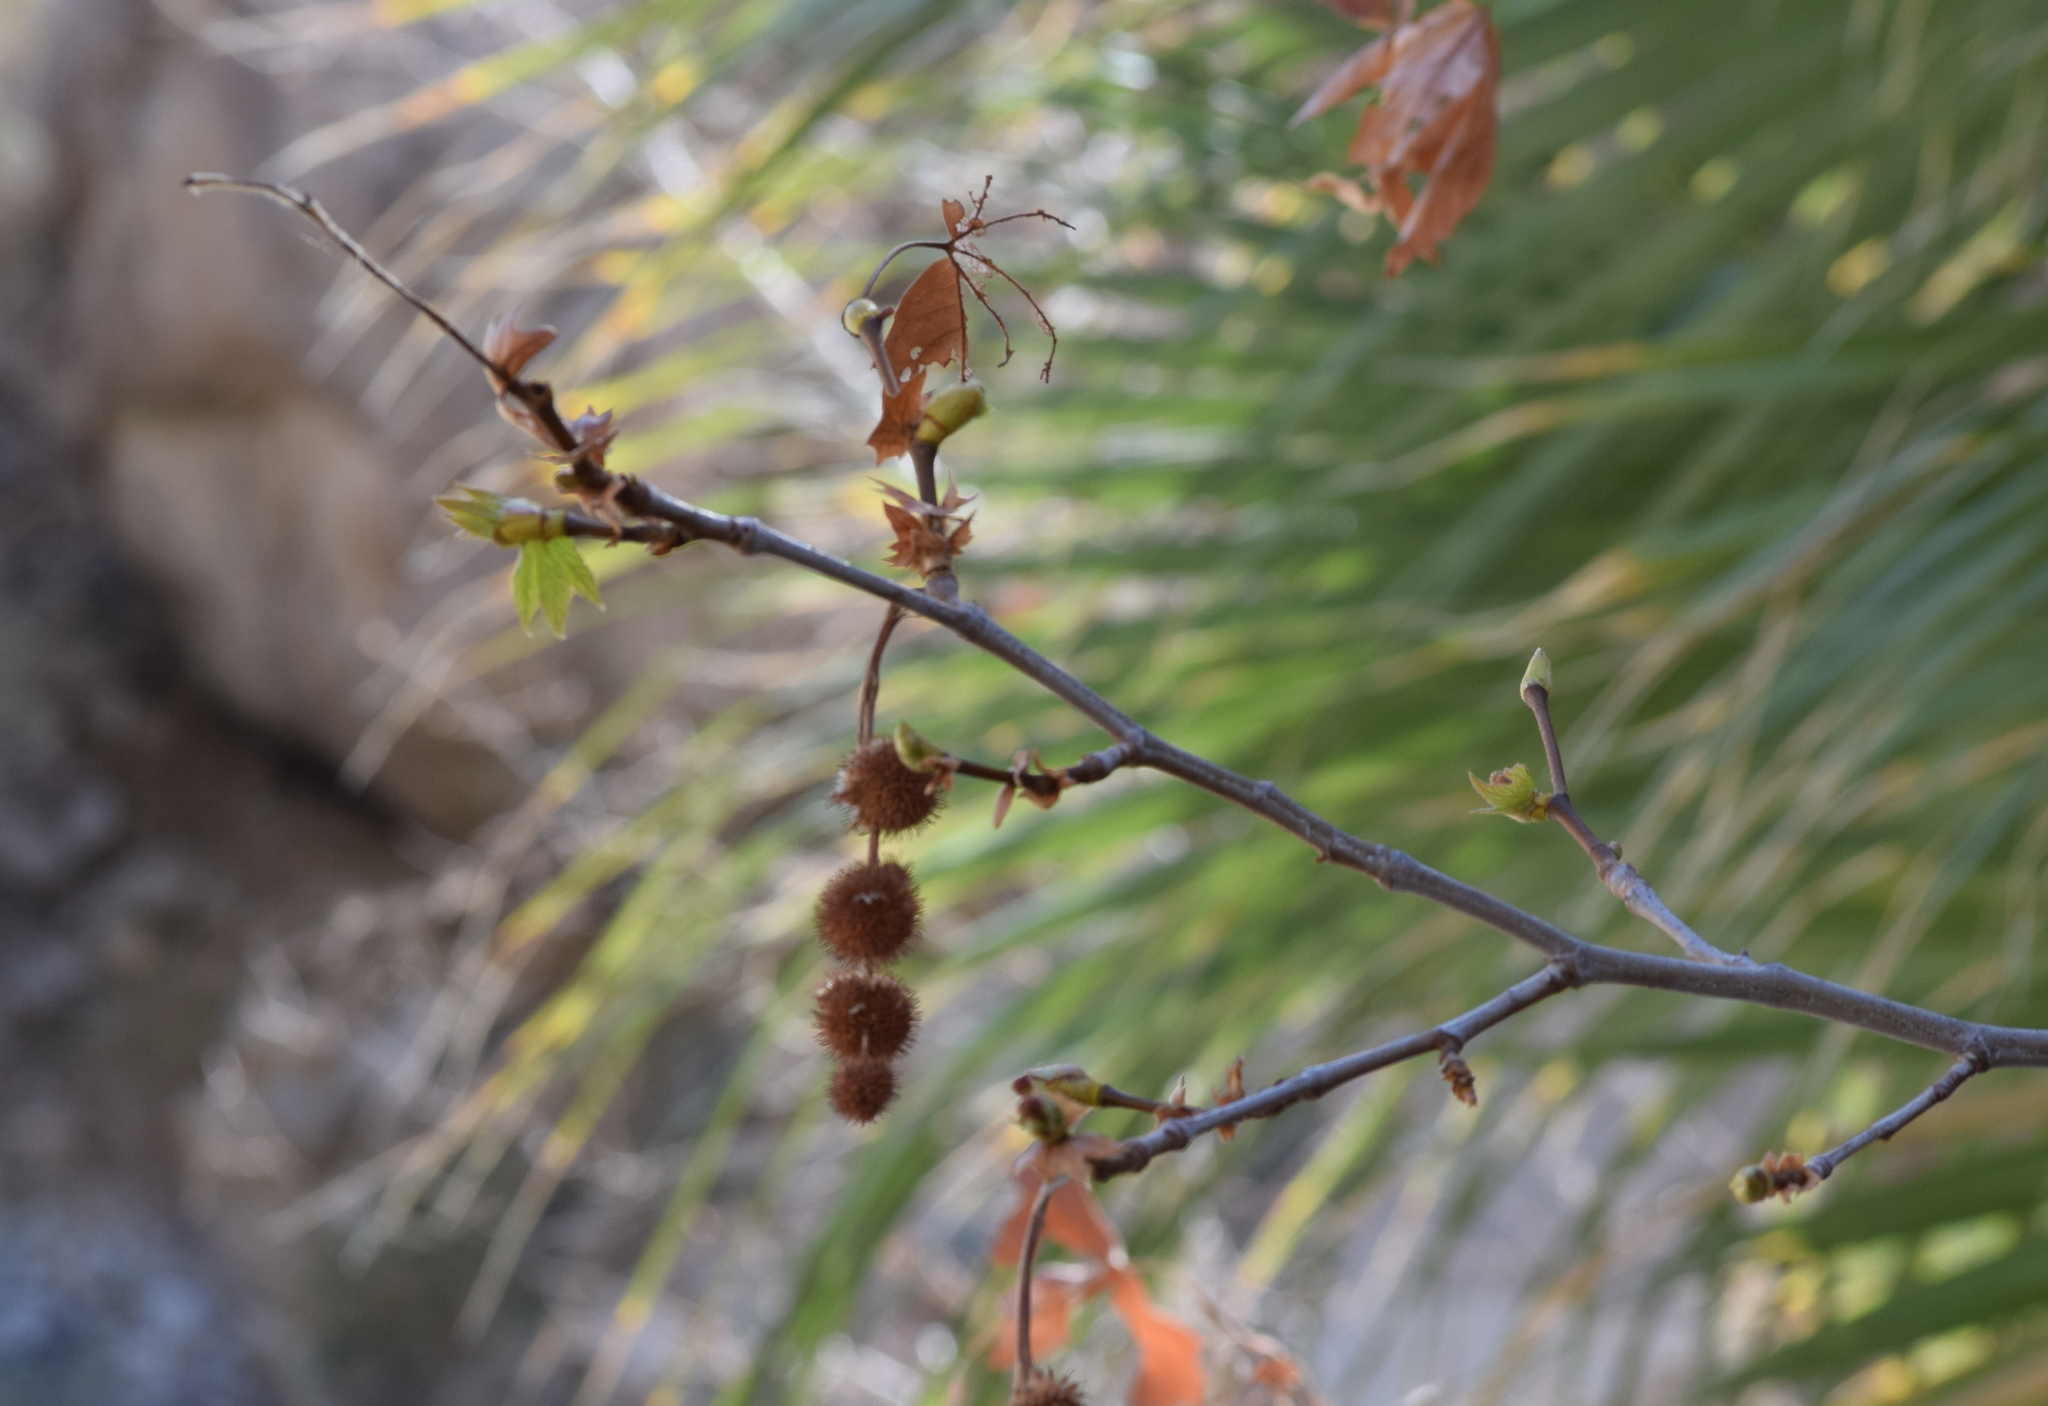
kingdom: Plantae
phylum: Tracheophyta
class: Magnoliopsida
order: Proteales
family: Platanaceae
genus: Platanus
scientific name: Platanus racemosa
